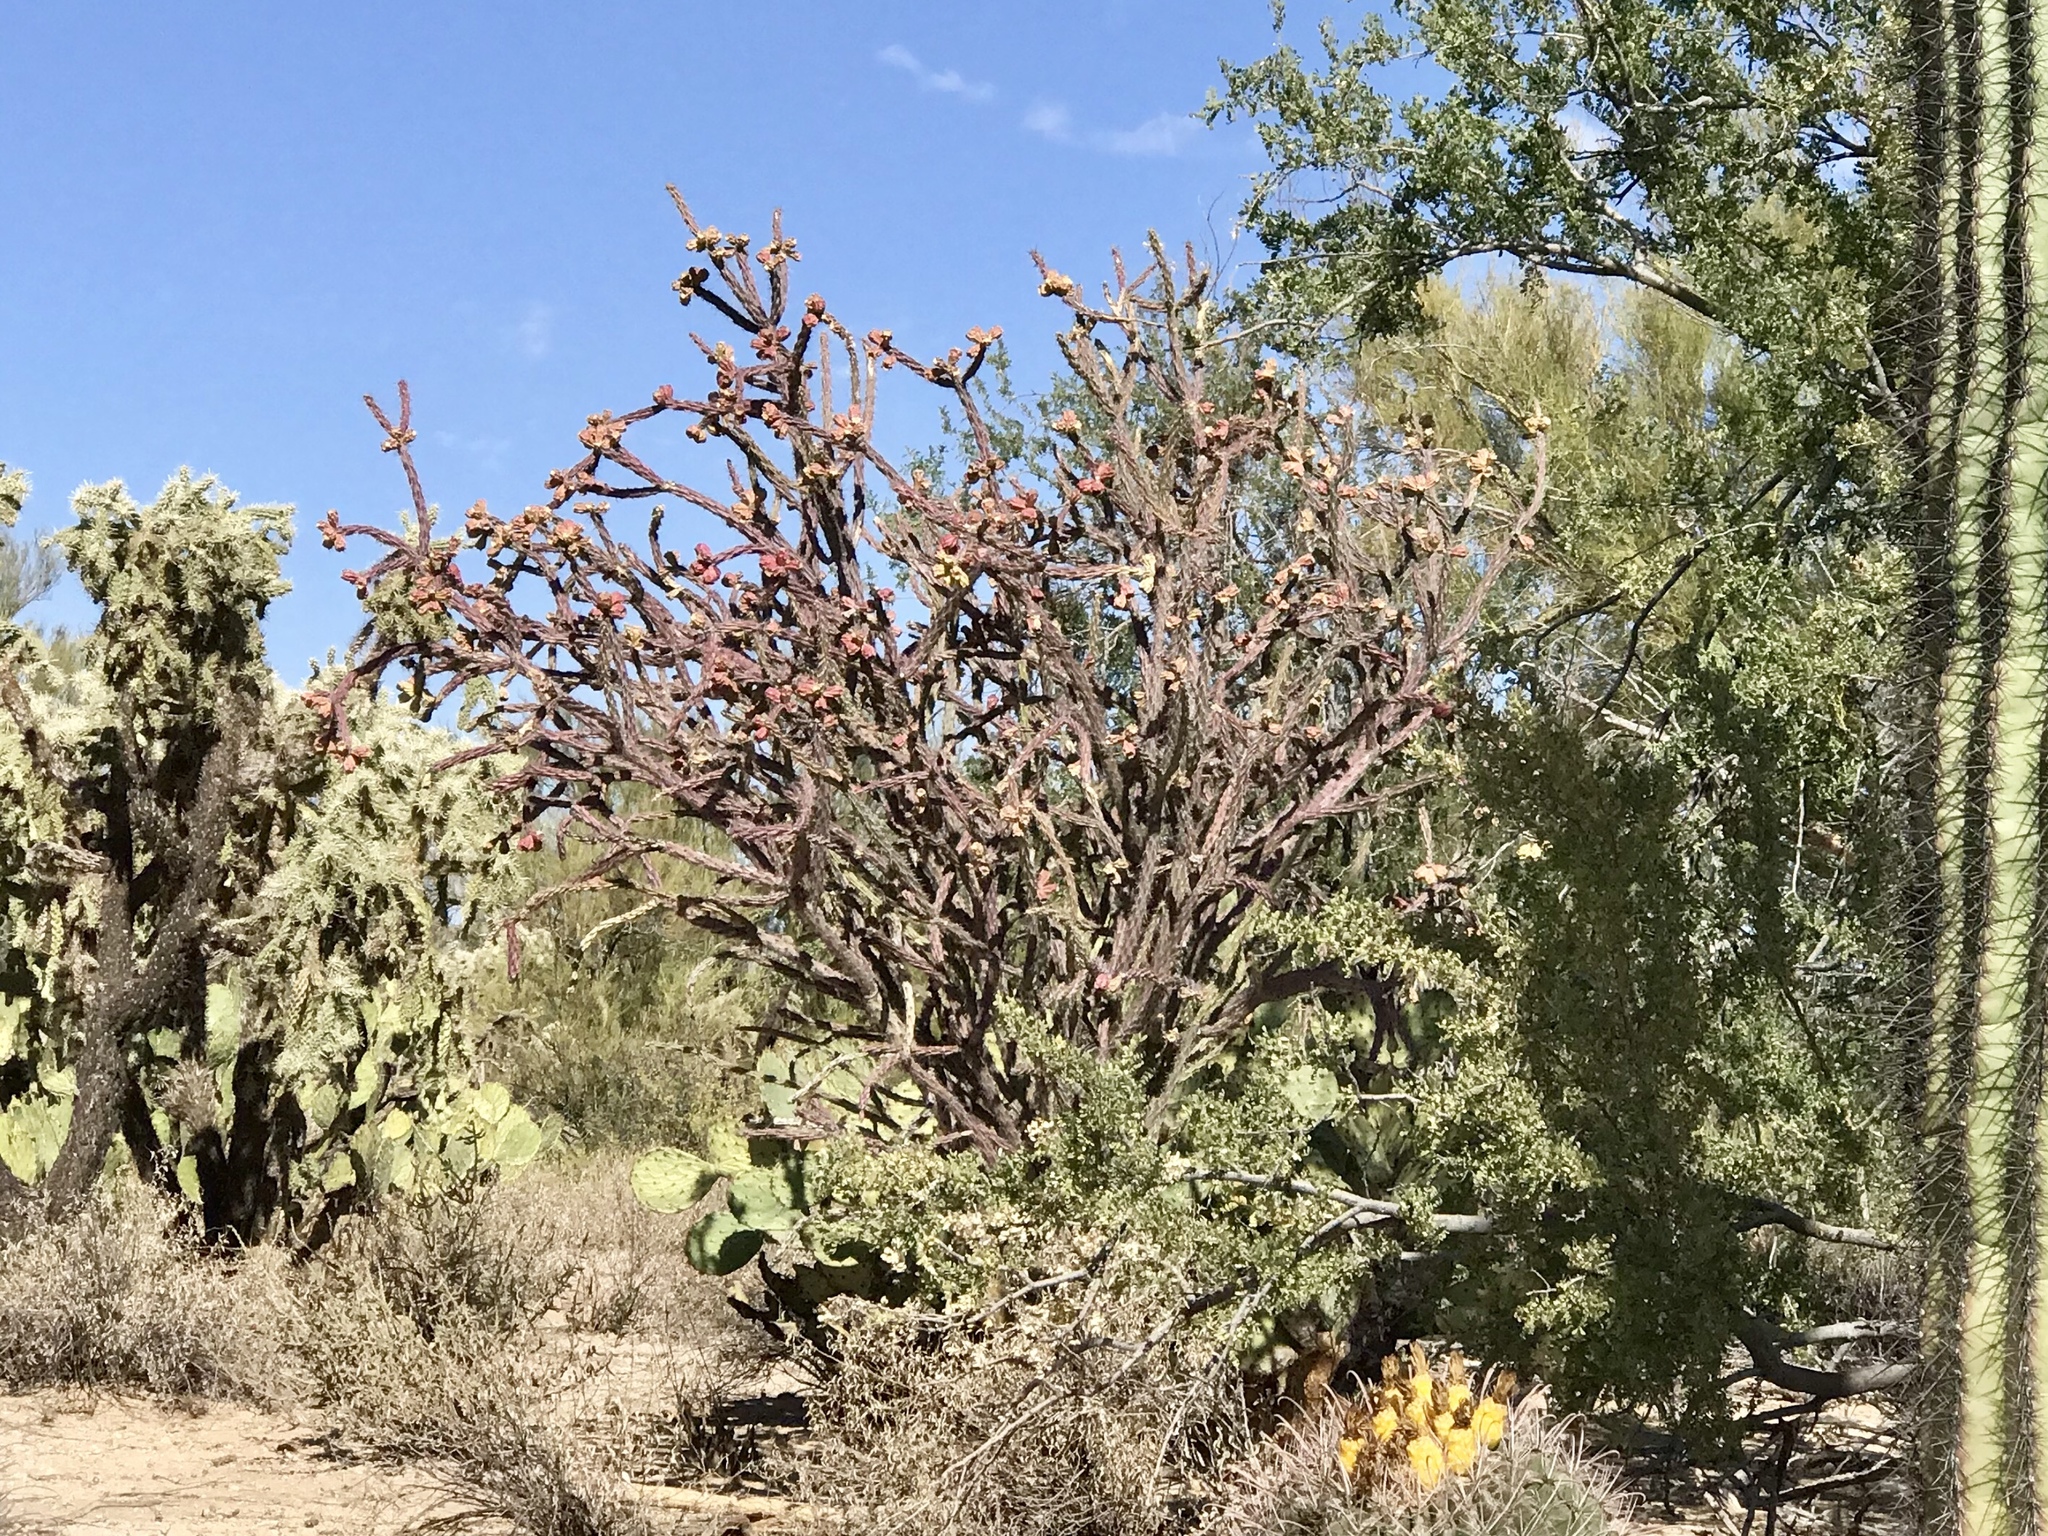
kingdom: Plantae
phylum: Tracheophyta
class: Magnoliopsida
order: Caryophyllales
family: Cactaceae
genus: Cylindropuntia
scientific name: Cylindropuntia thurberi
